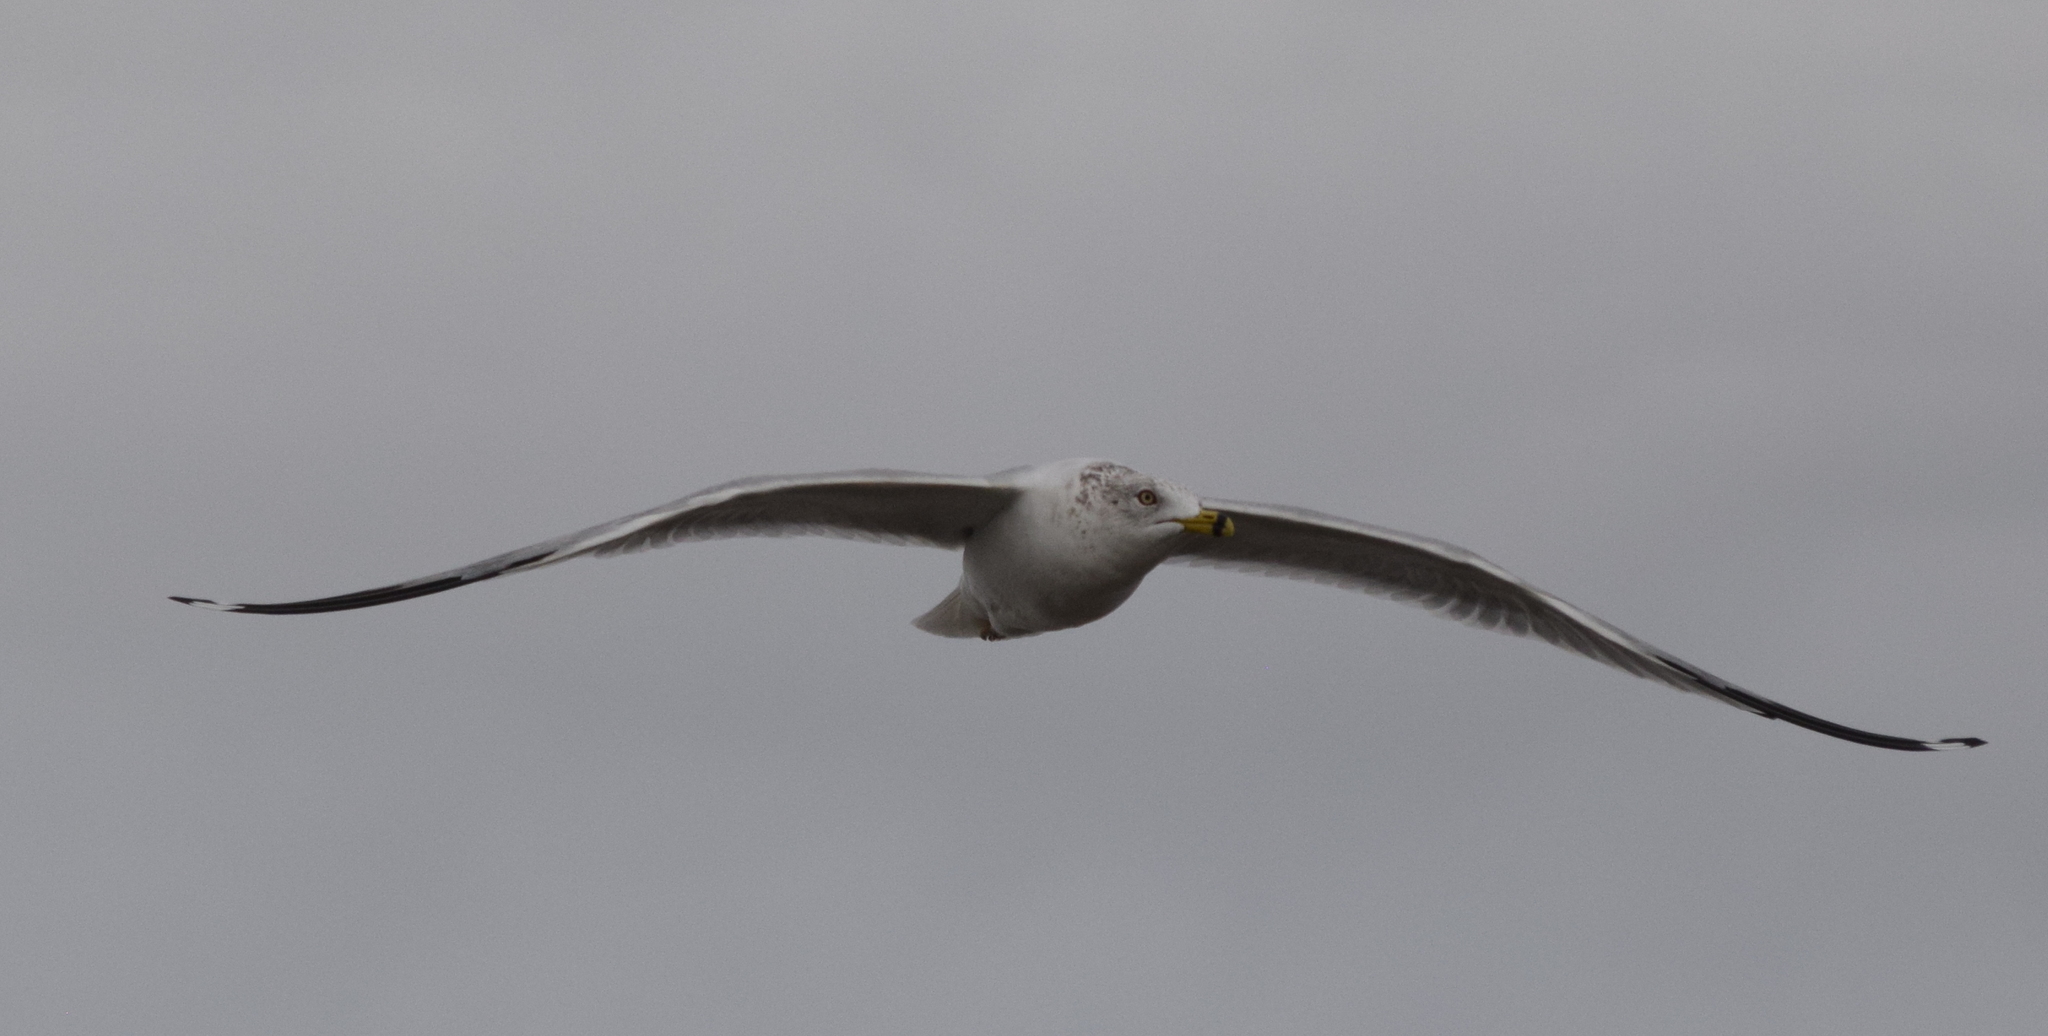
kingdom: Animalia
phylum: Chordata
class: Aves
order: Charadriiformes
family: Laridae
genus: Larus
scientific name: Larus delawarensis
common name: Ring-billed gull
